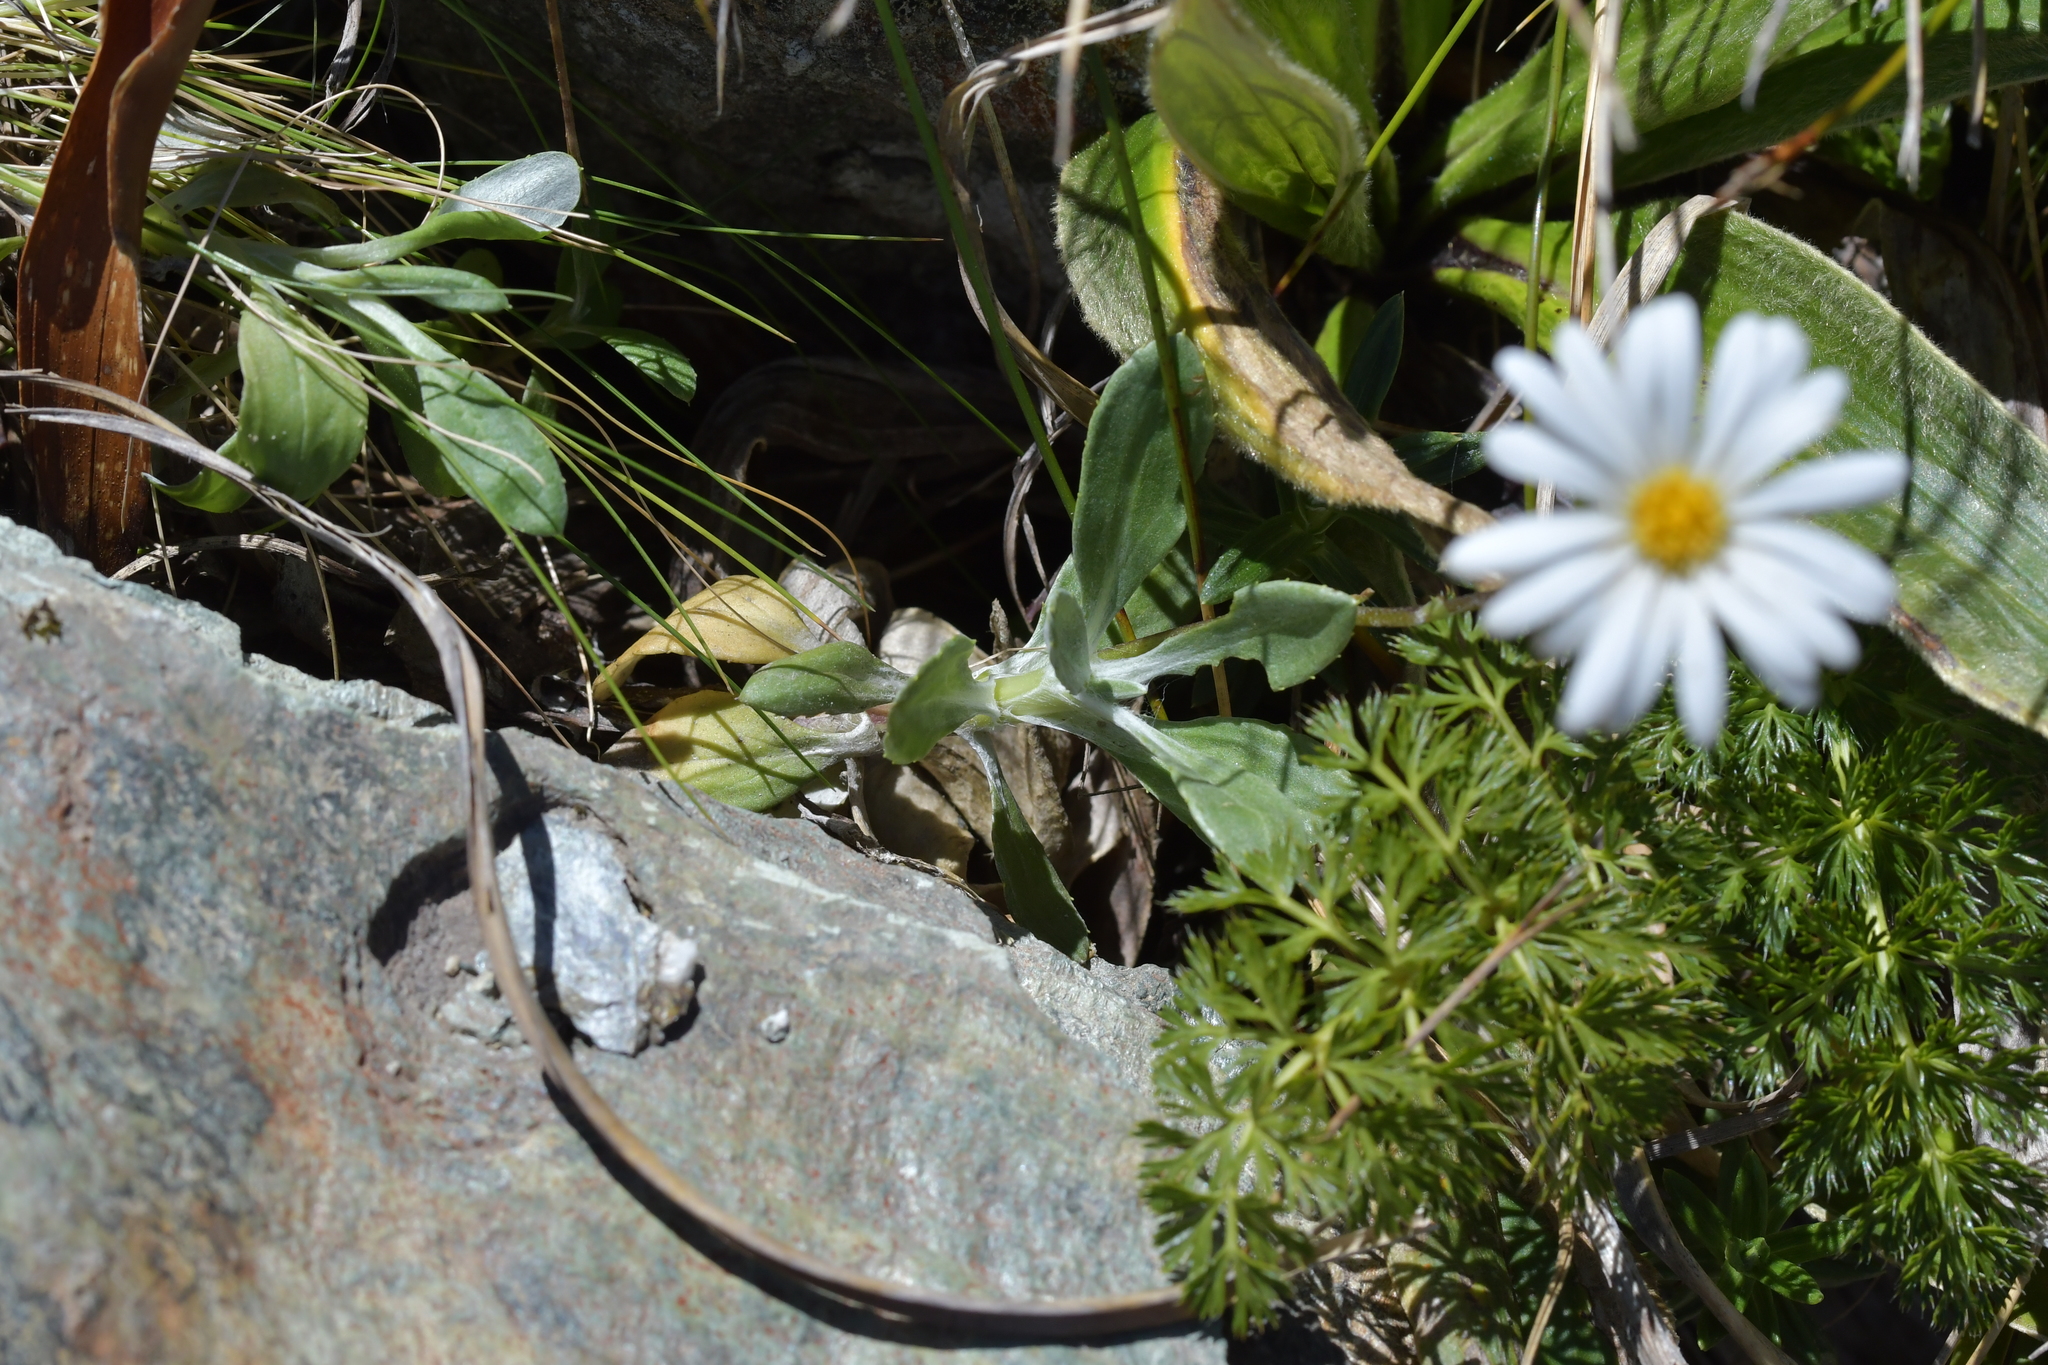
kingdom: Plantae
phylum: Tracheophyta
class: Magnoliopsida
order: Asterales
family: Asteraceae
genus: Celmisia
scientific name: Celmisia verbascifolia
